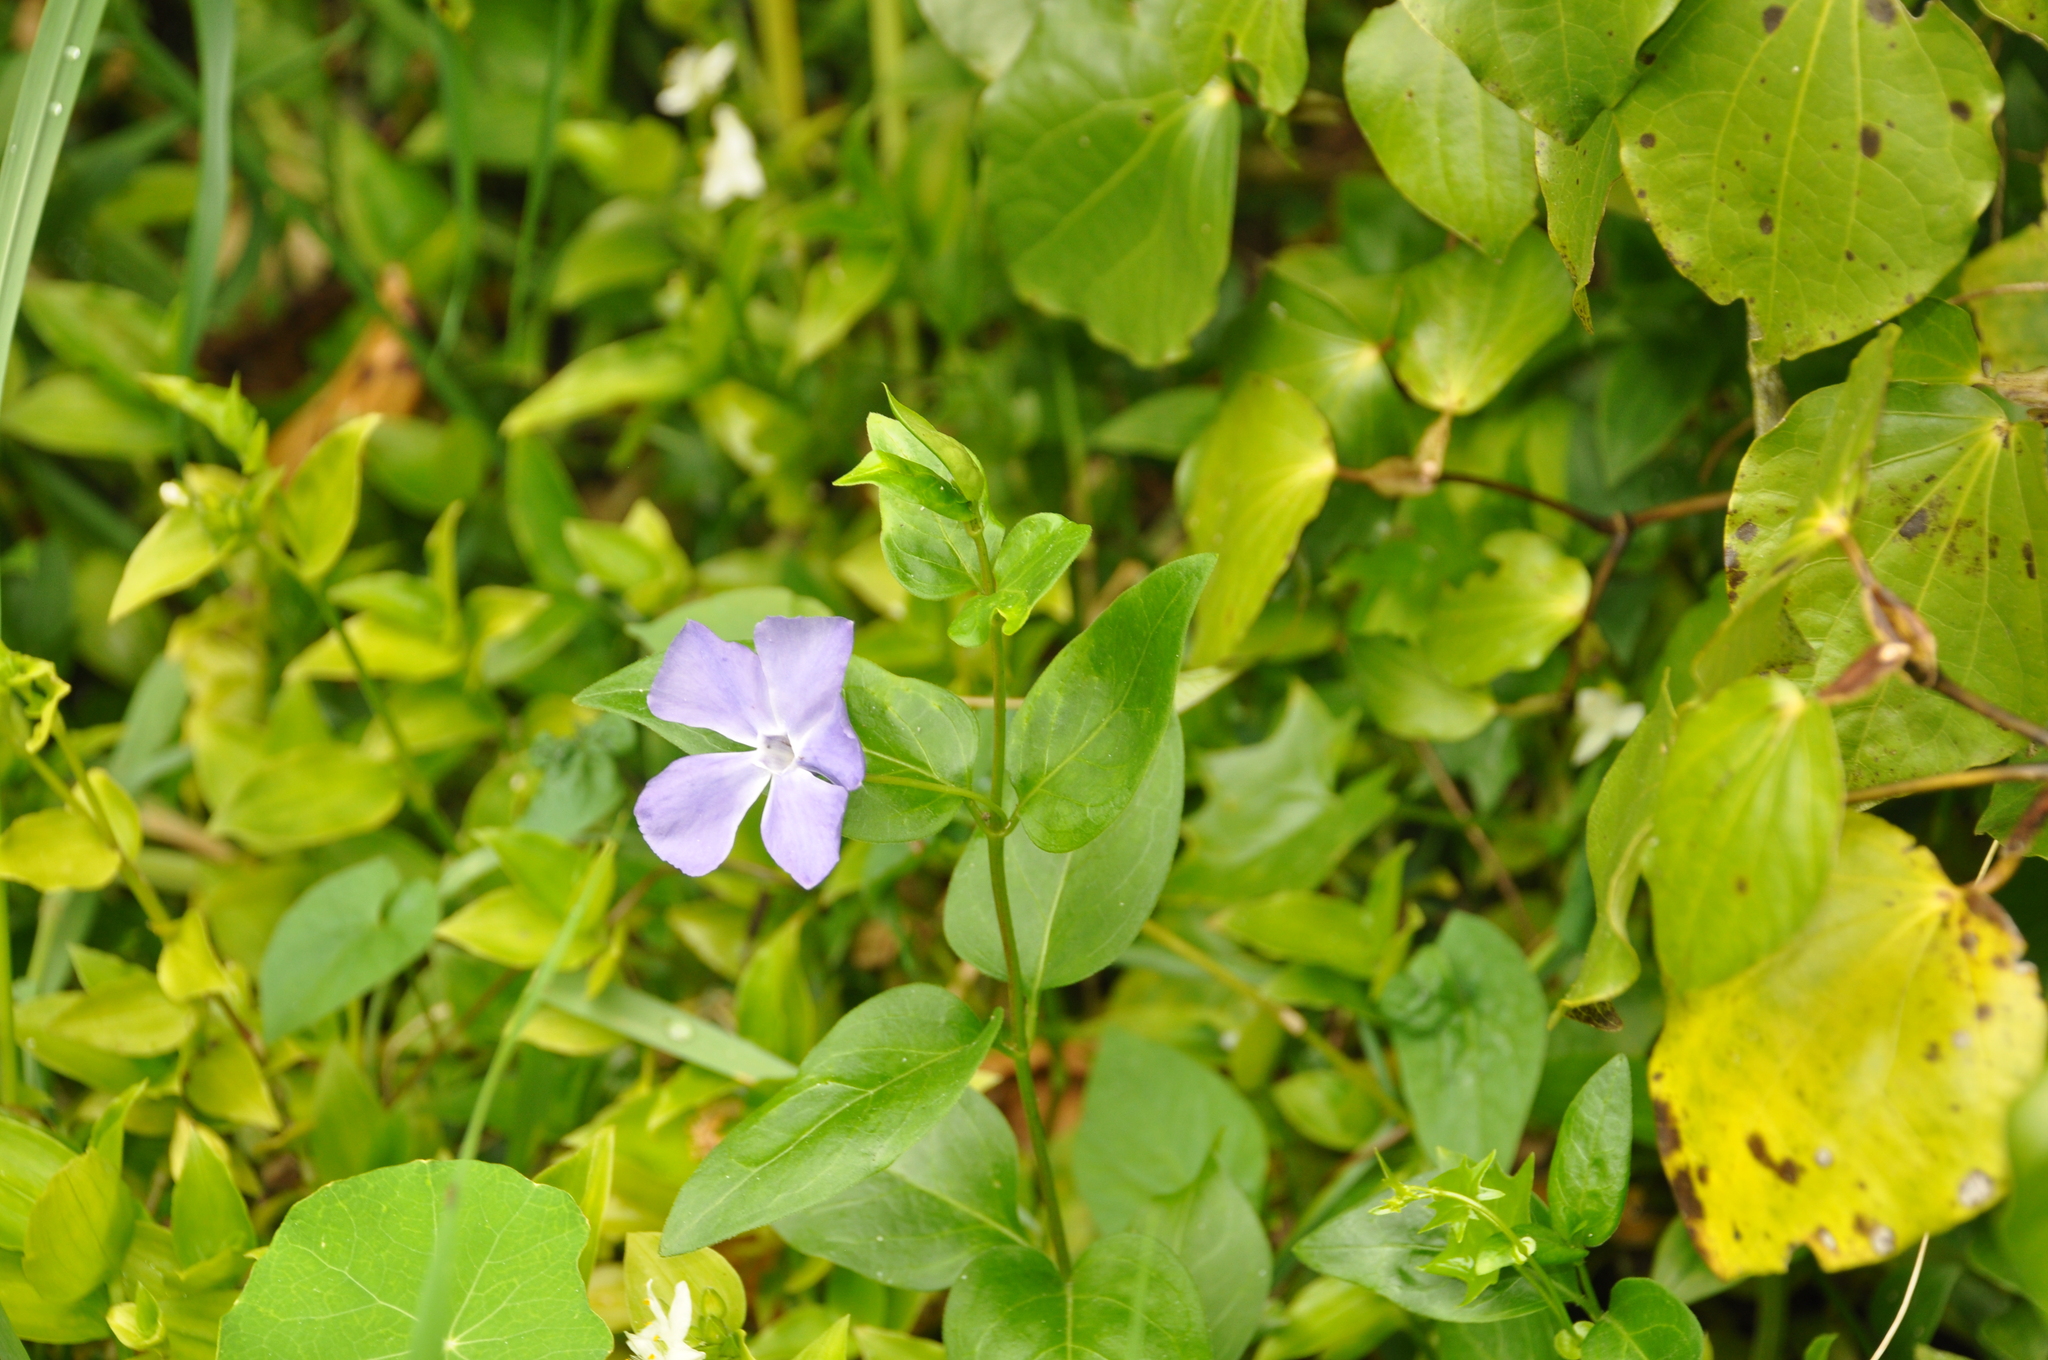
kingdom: Plantae
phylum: Tracheophyta
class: Magnoliopsida
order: Gentianales
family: Apocynaceae
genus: Vinca
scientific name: Vinca major
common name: Greater periwinkle
